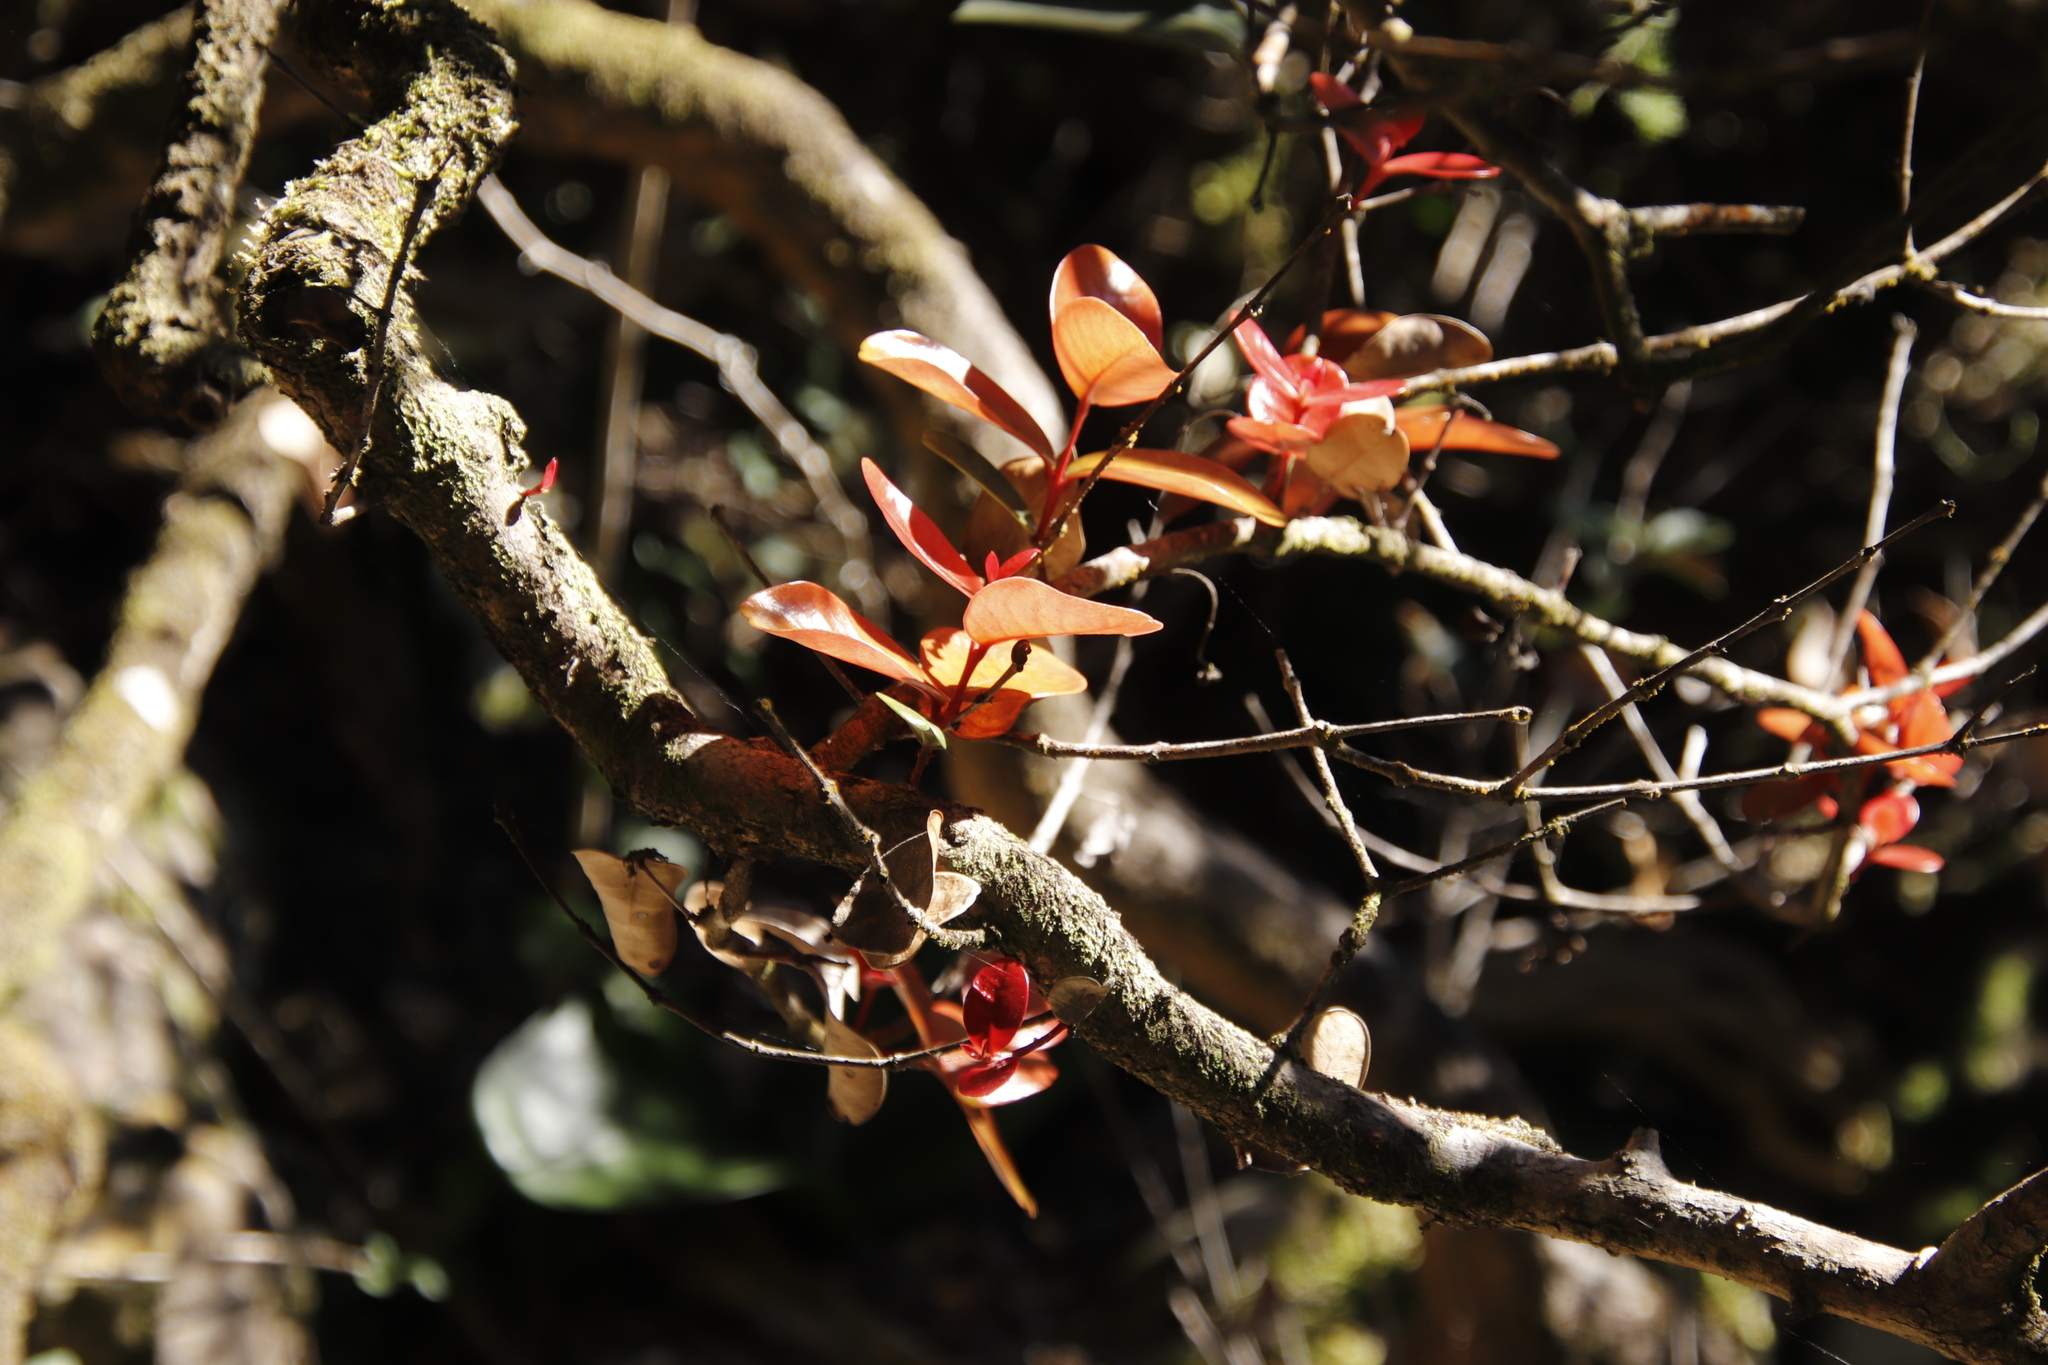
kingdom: Plantae
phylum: Tracheophyta
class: Magnoliopsida
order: Celastrales
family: Celastraceae
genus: Maurocenia
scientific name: Maurocenia frangula
